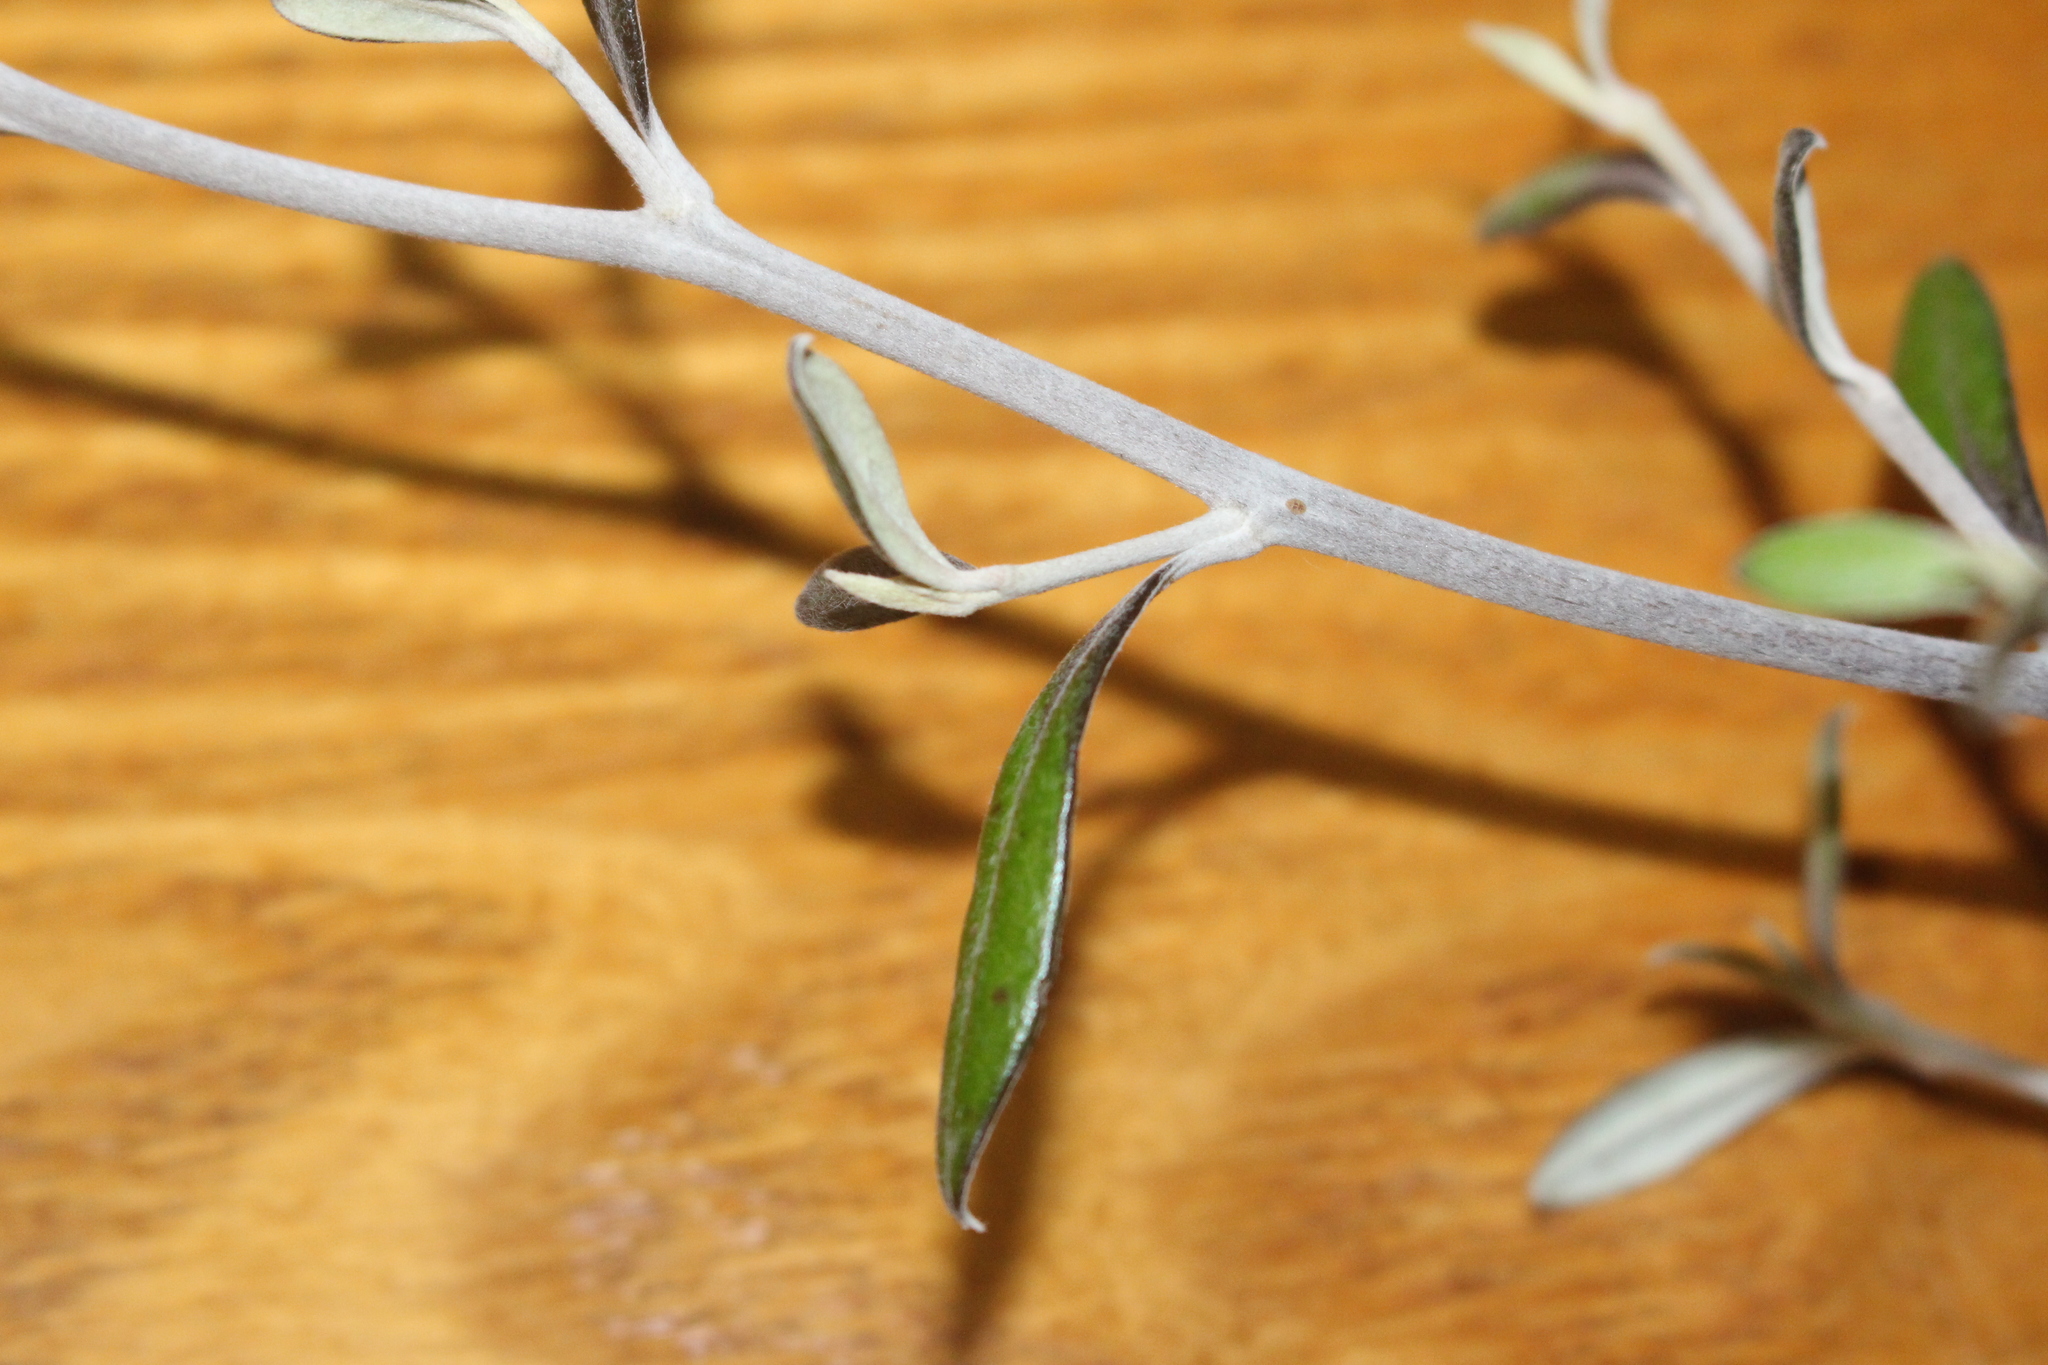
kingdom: Plantae
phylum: Tracheophyta
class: Magnoliopsida
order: Asterales
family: Argophyllaceae
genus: Corokia
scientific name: Corokia virgata
